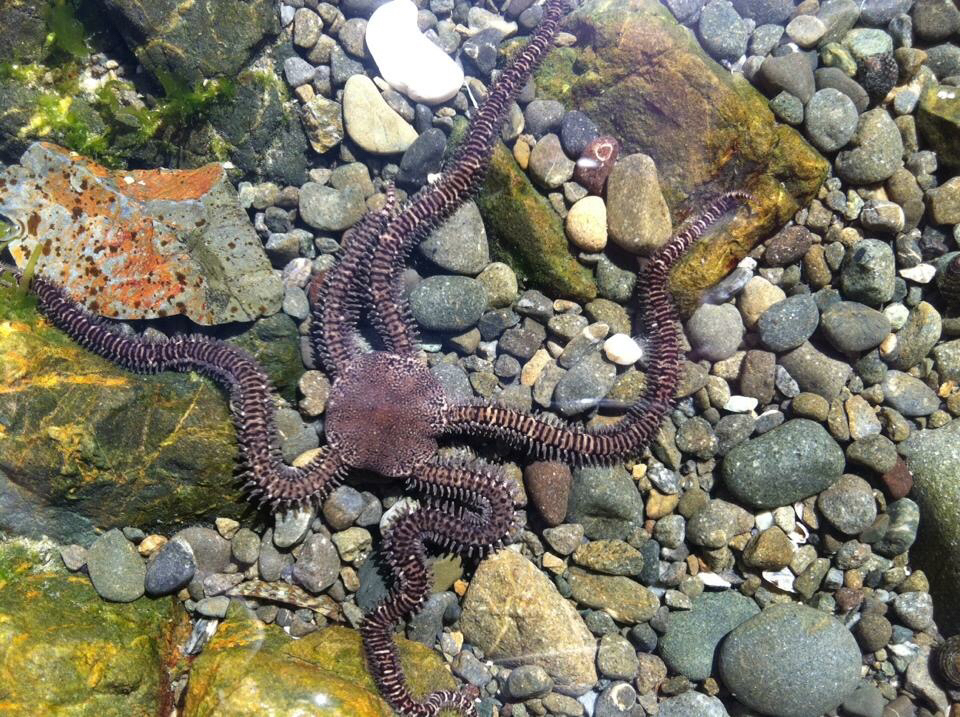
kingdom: Animalia
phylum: Echinodermata
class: Ophiuroidea
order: Amphilepidida
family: Ophionereididae
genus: Ophionereis
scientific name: Ophionereis fasciata
